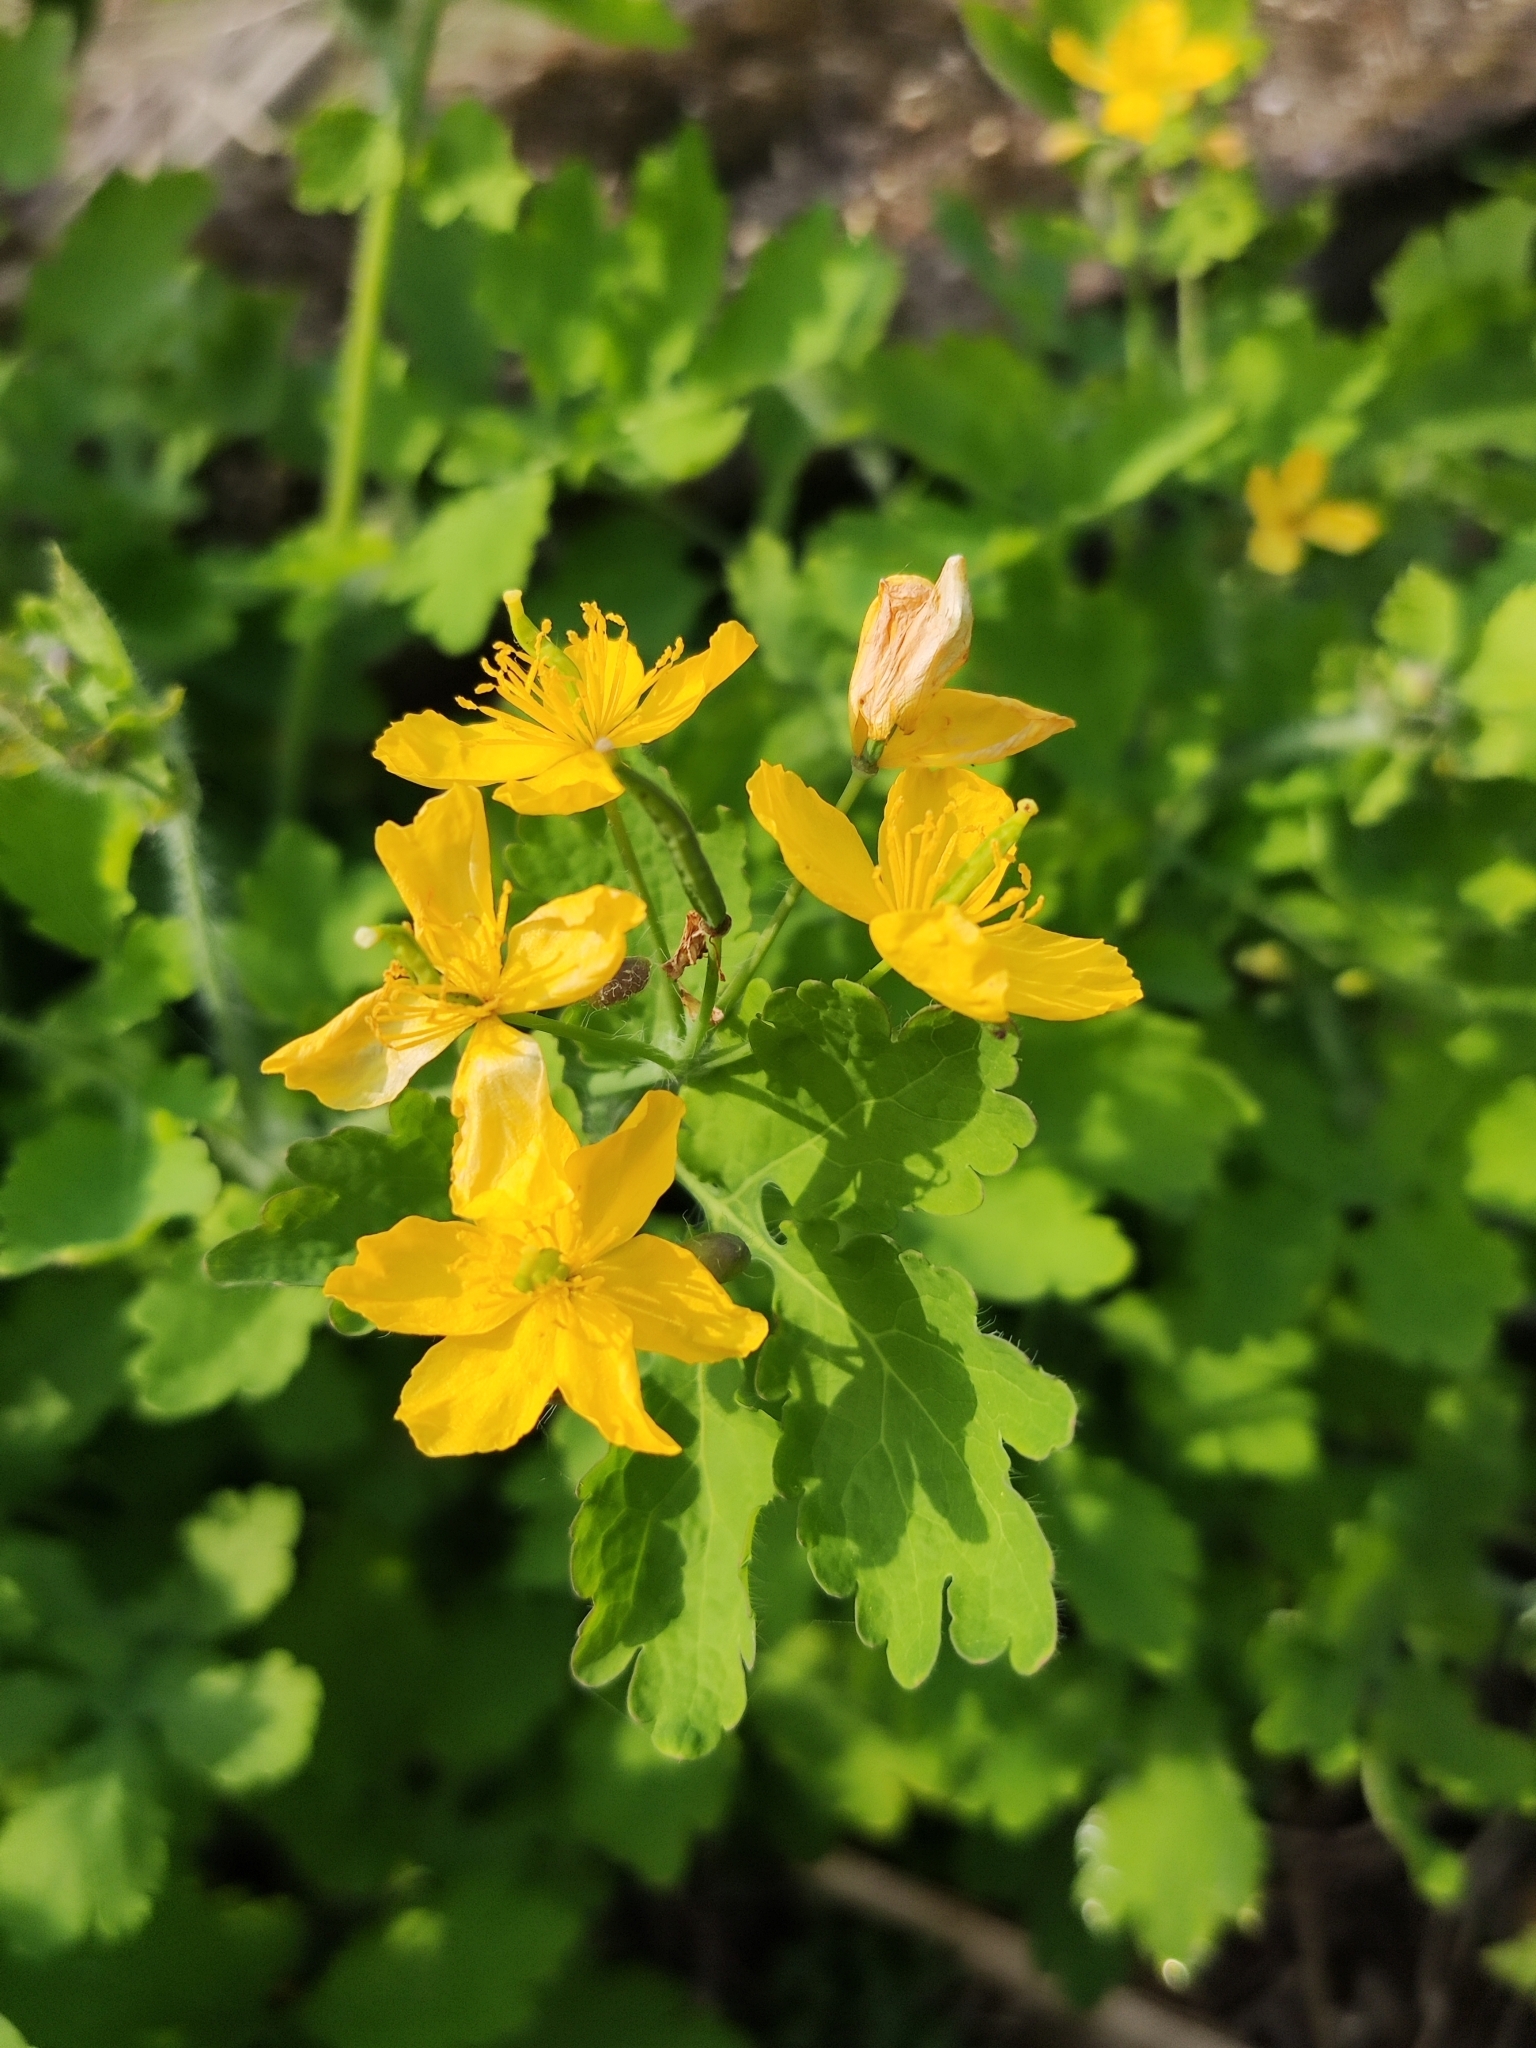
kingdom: Plantae
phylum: Tracheophyta
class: Magnoliopsida
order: Ranunculales
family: Papaveraceae
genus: Chelidonium
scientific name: Chelidonium majus
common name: Greater celandine
